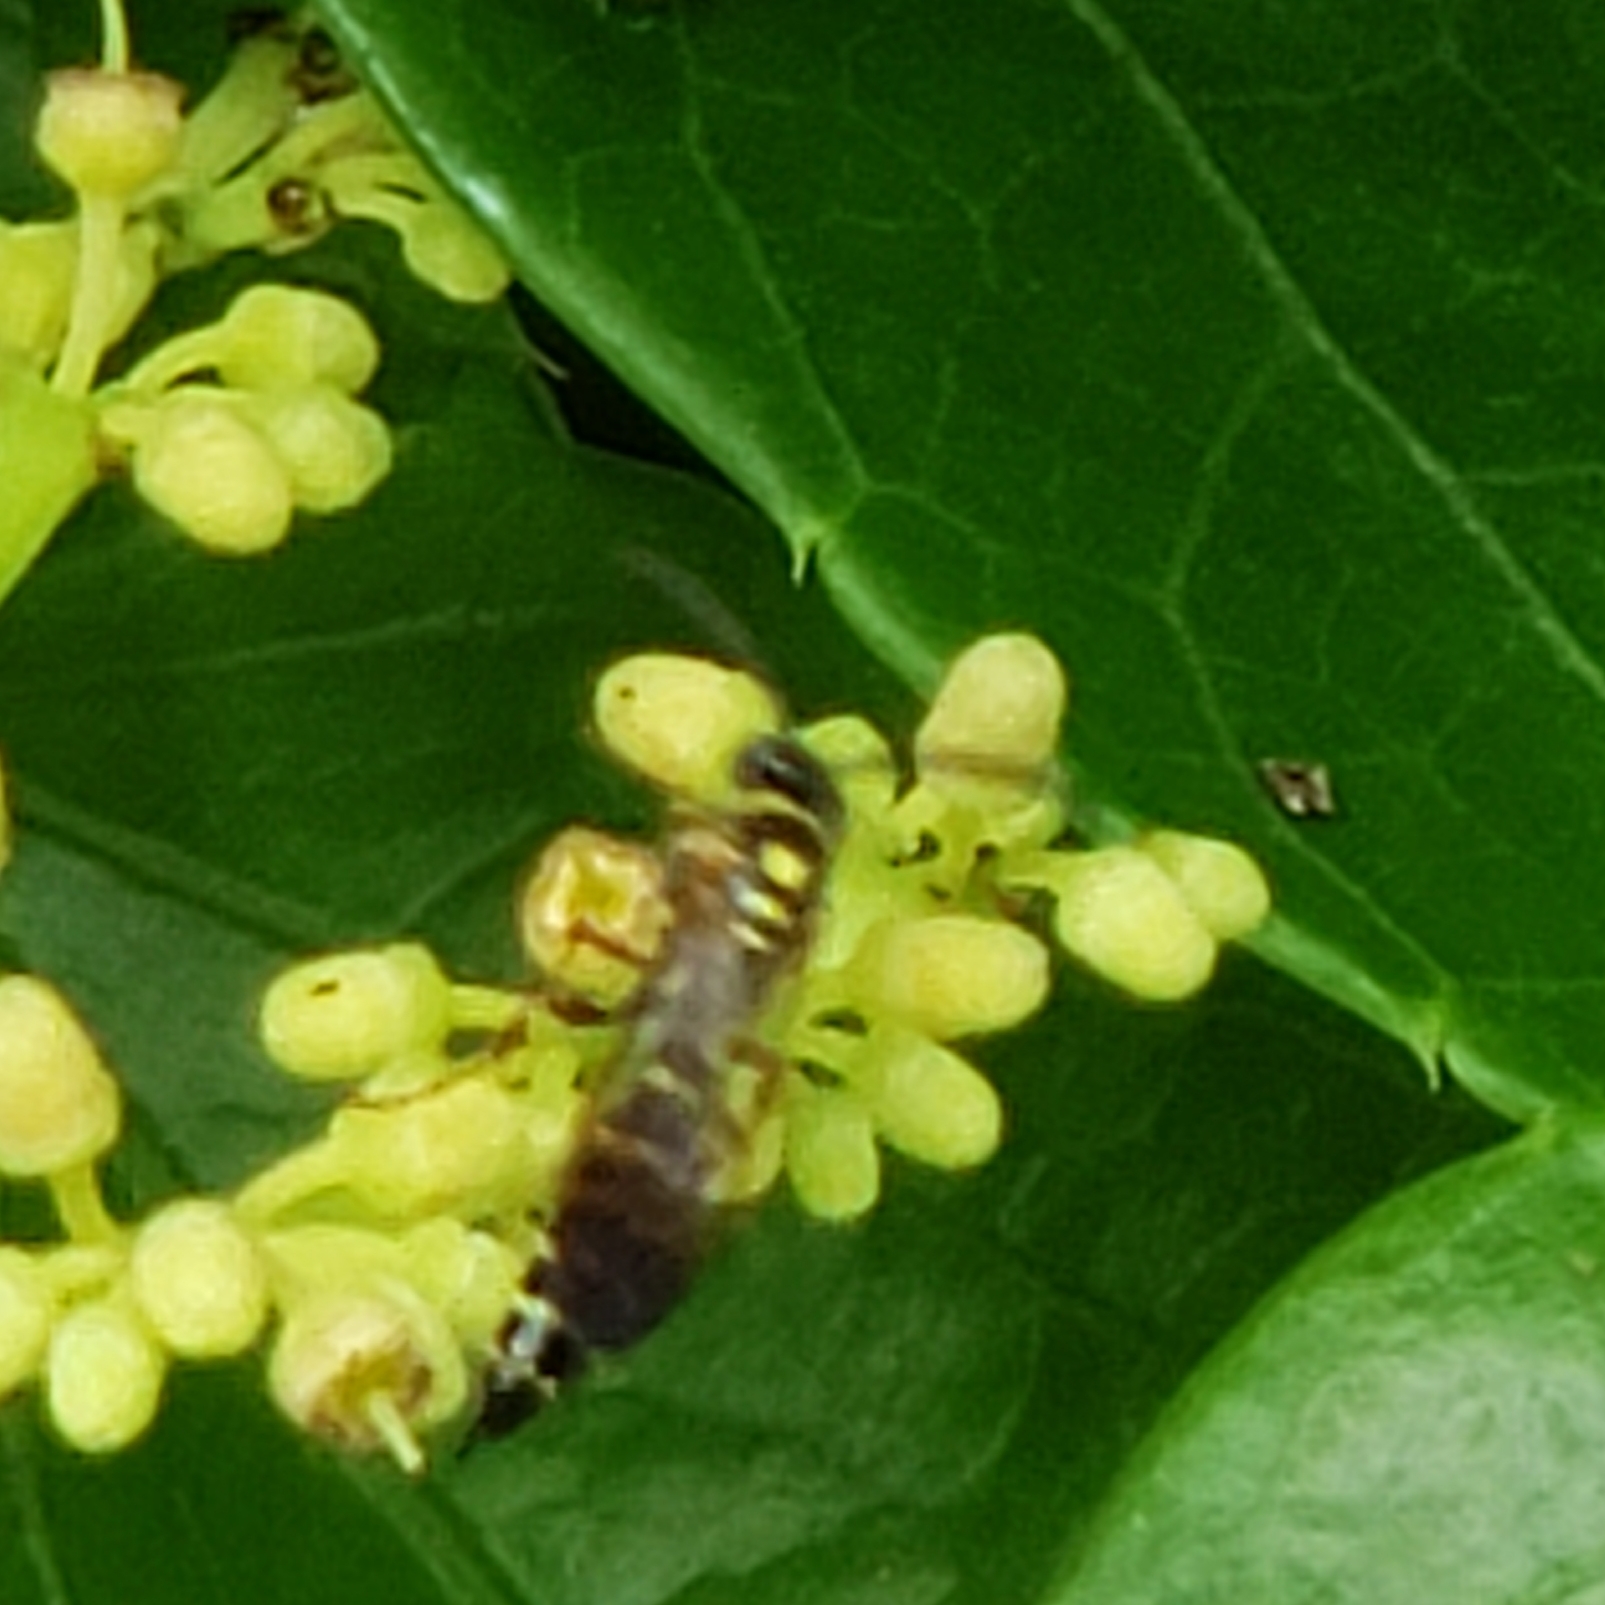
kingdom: Animalia
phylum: Arthropoda
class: Insecta
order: Hymenoptera
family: Tiphiidae
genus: Myzinum
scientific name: Myzinum
